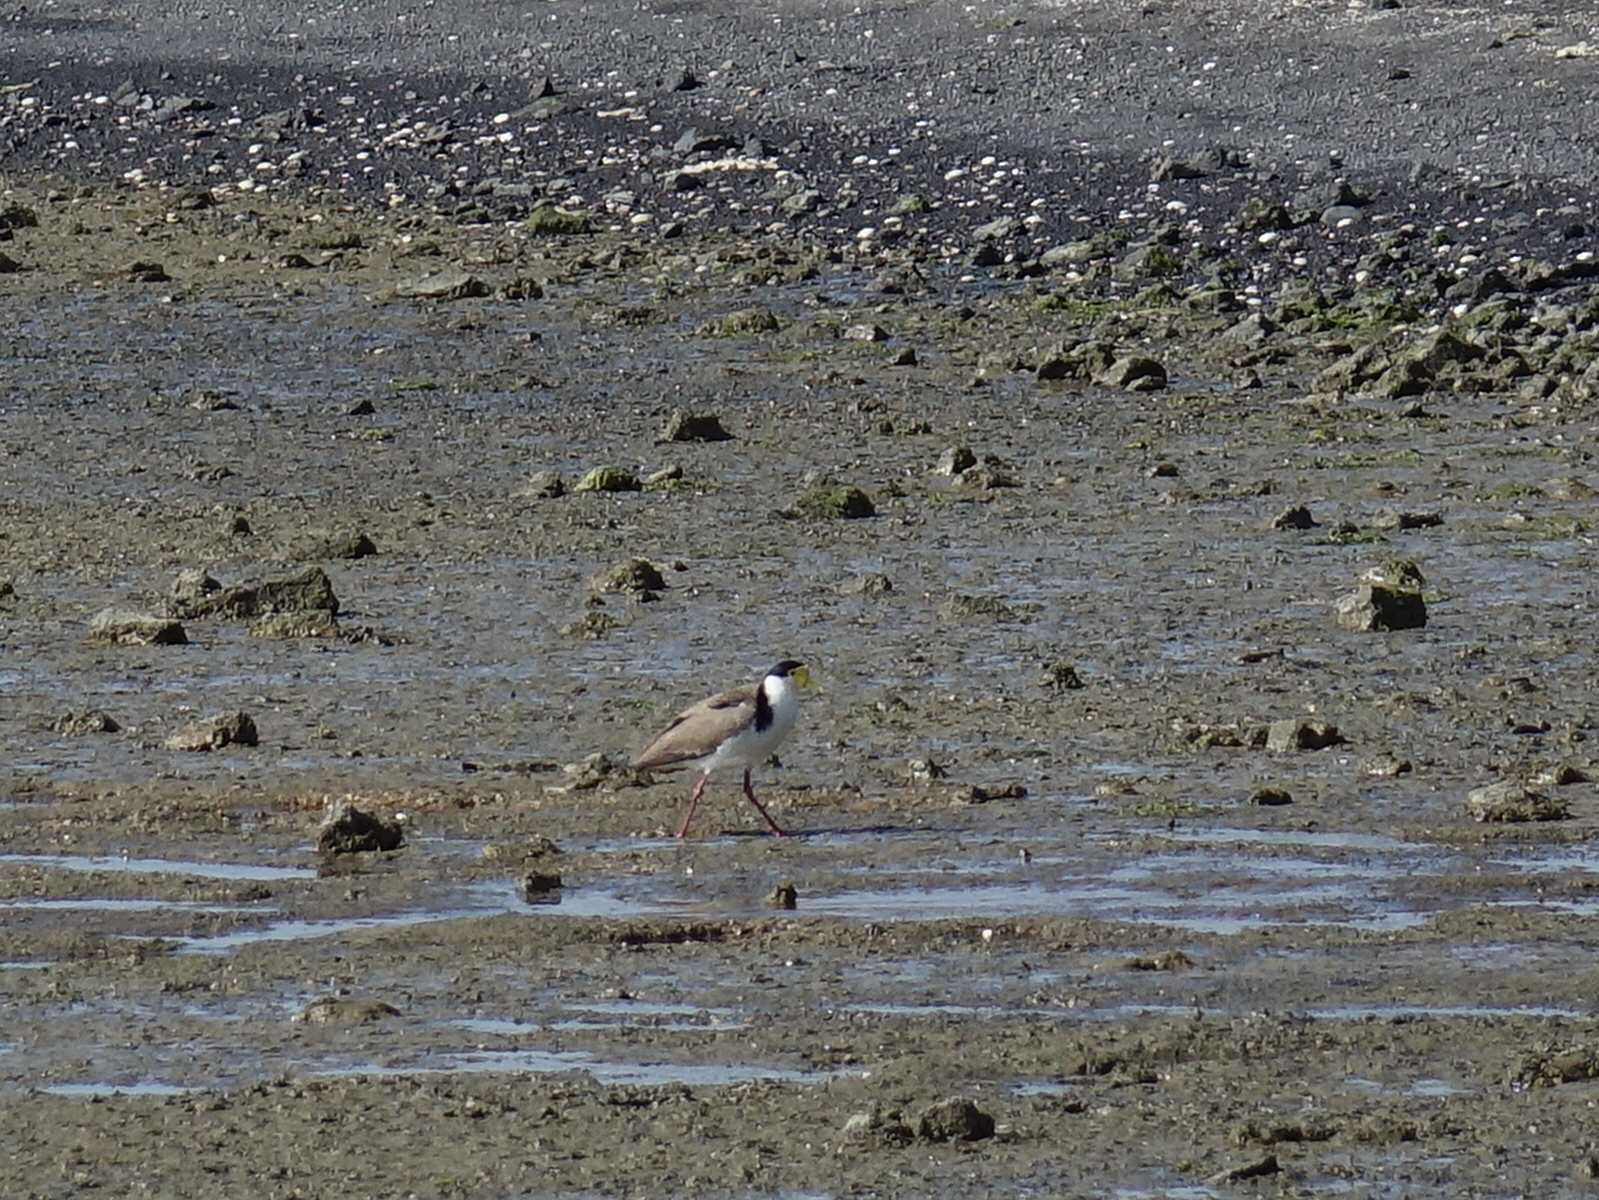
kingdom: Animalia
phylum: Chordata
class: Aves
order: Charadriiformes
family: Charadriidae
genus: Vanellus
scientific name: Vanellus miles
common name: Masked lapwing
